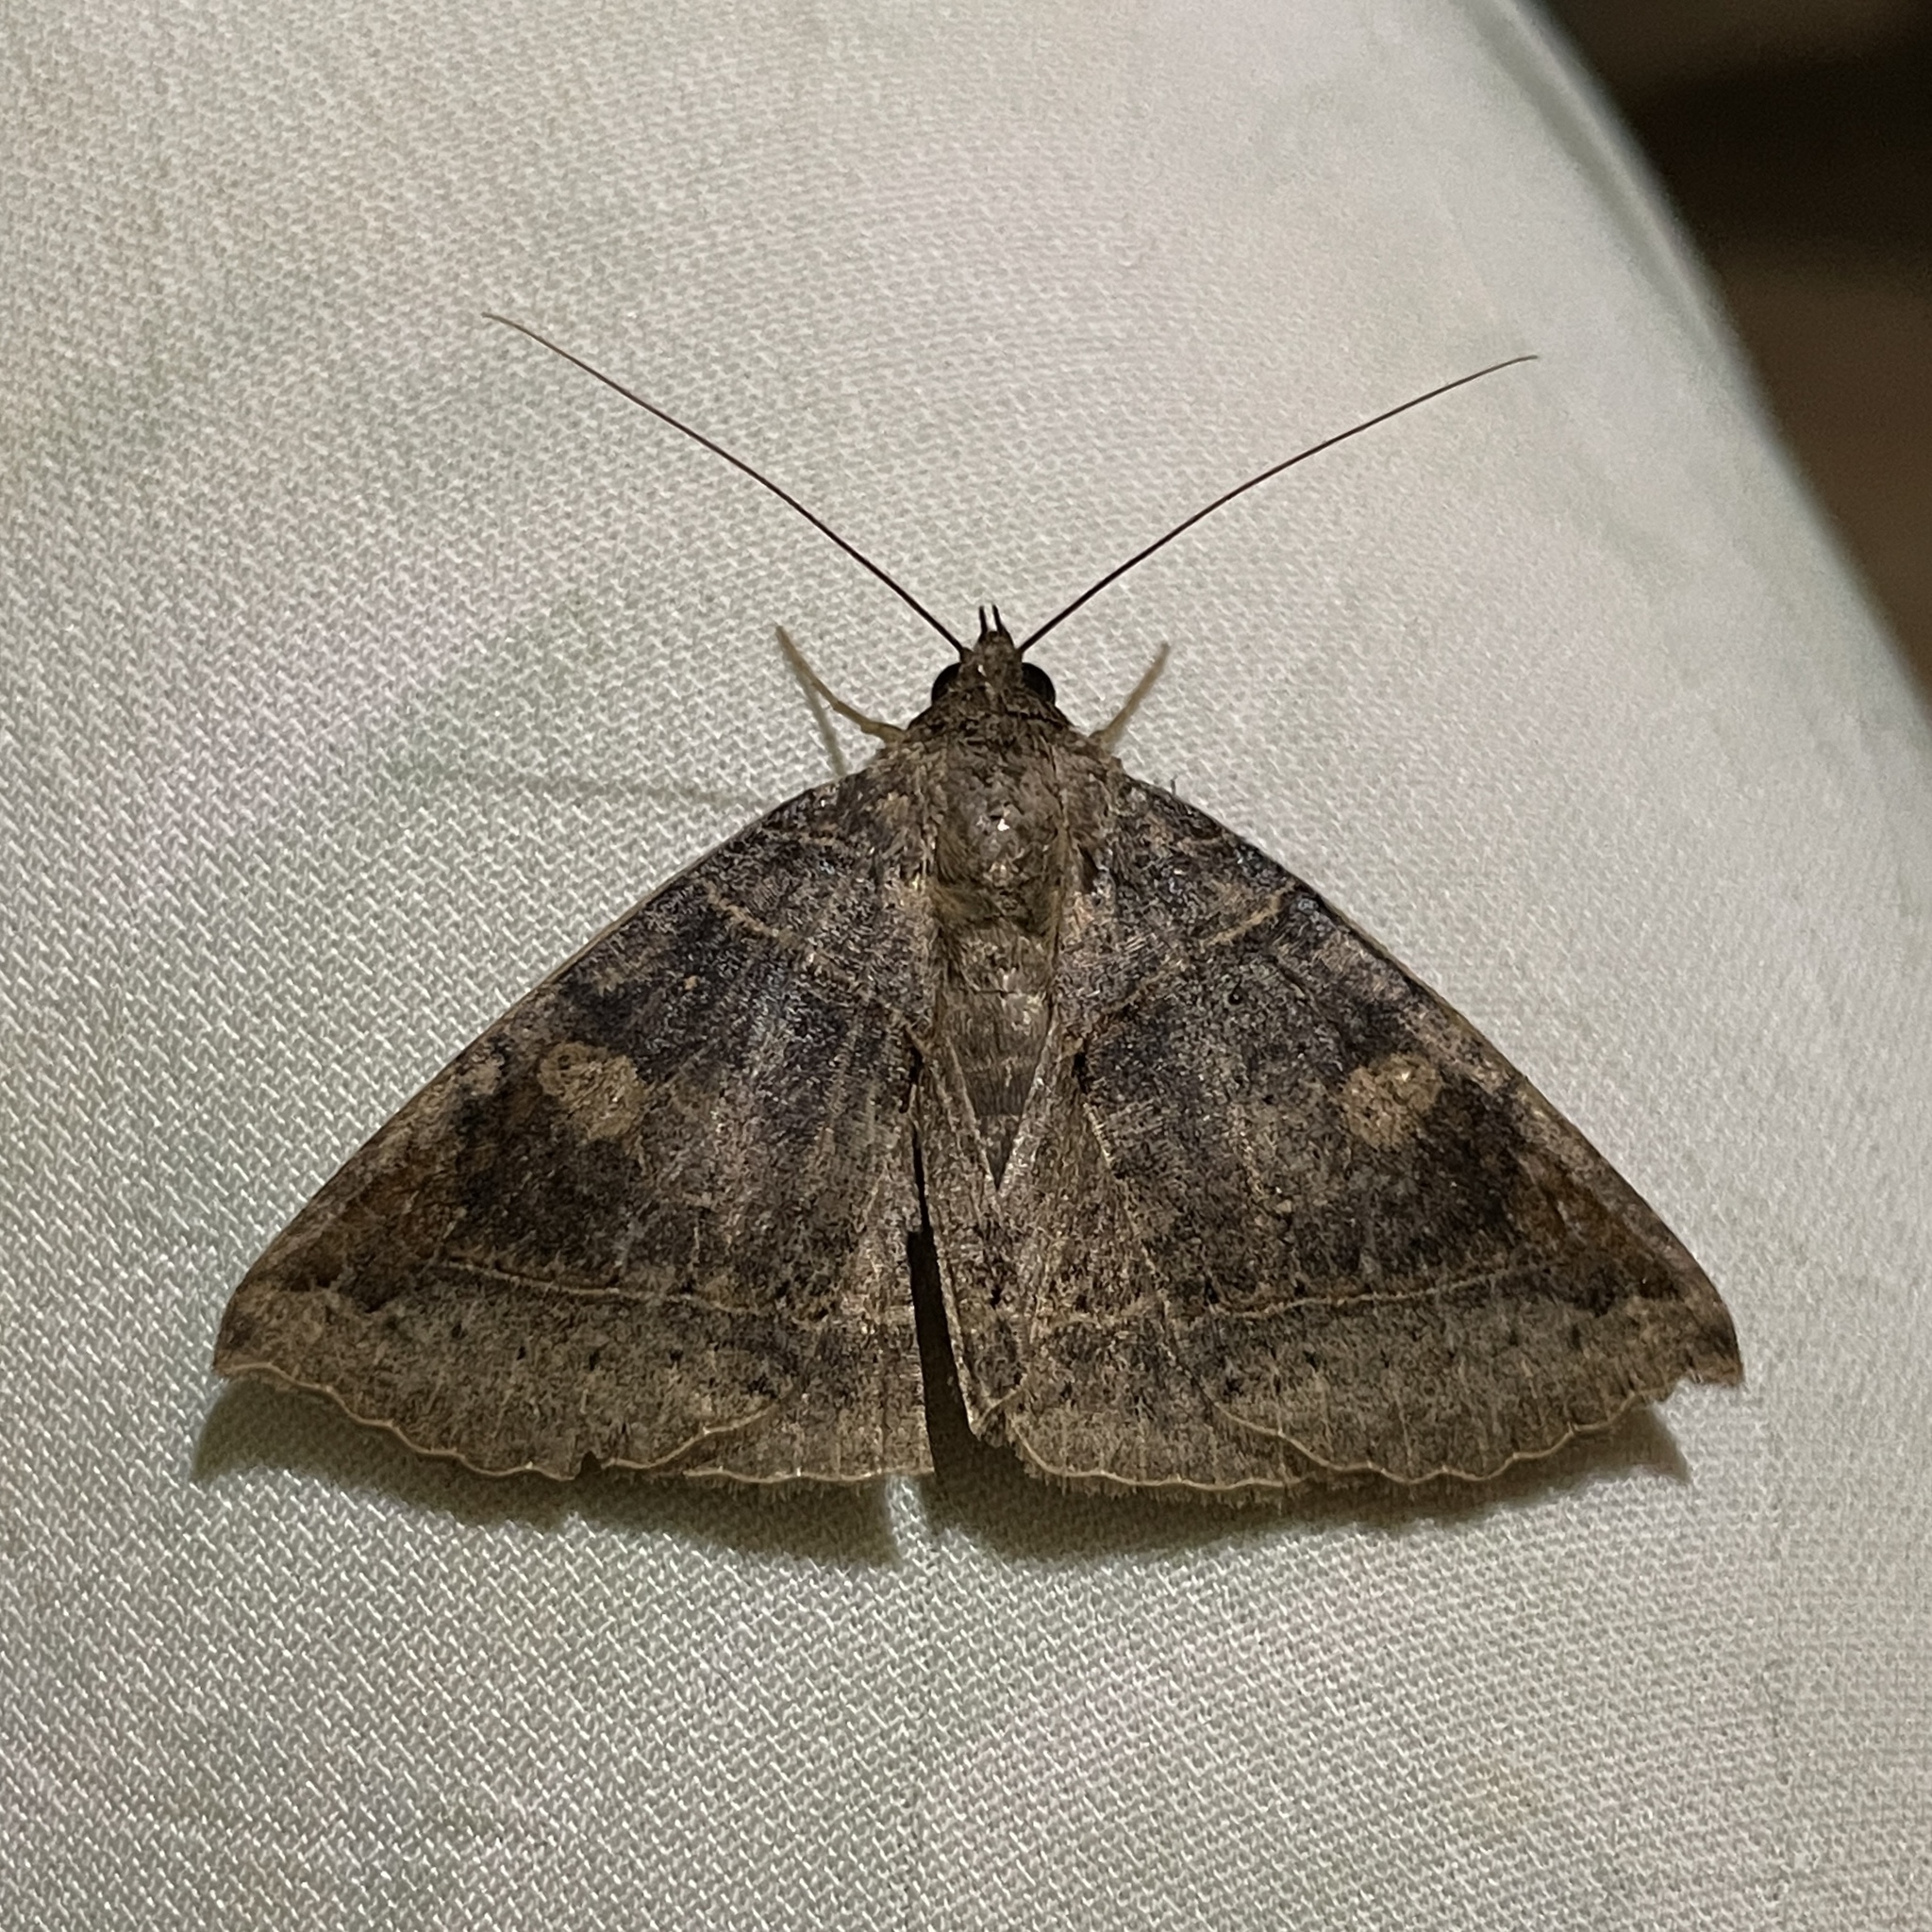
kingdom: Animalia
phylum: Arthropoda
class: Insecta
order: Lepidoptera
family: Erebidae
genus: Celiptera
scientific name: Celiptera levina
